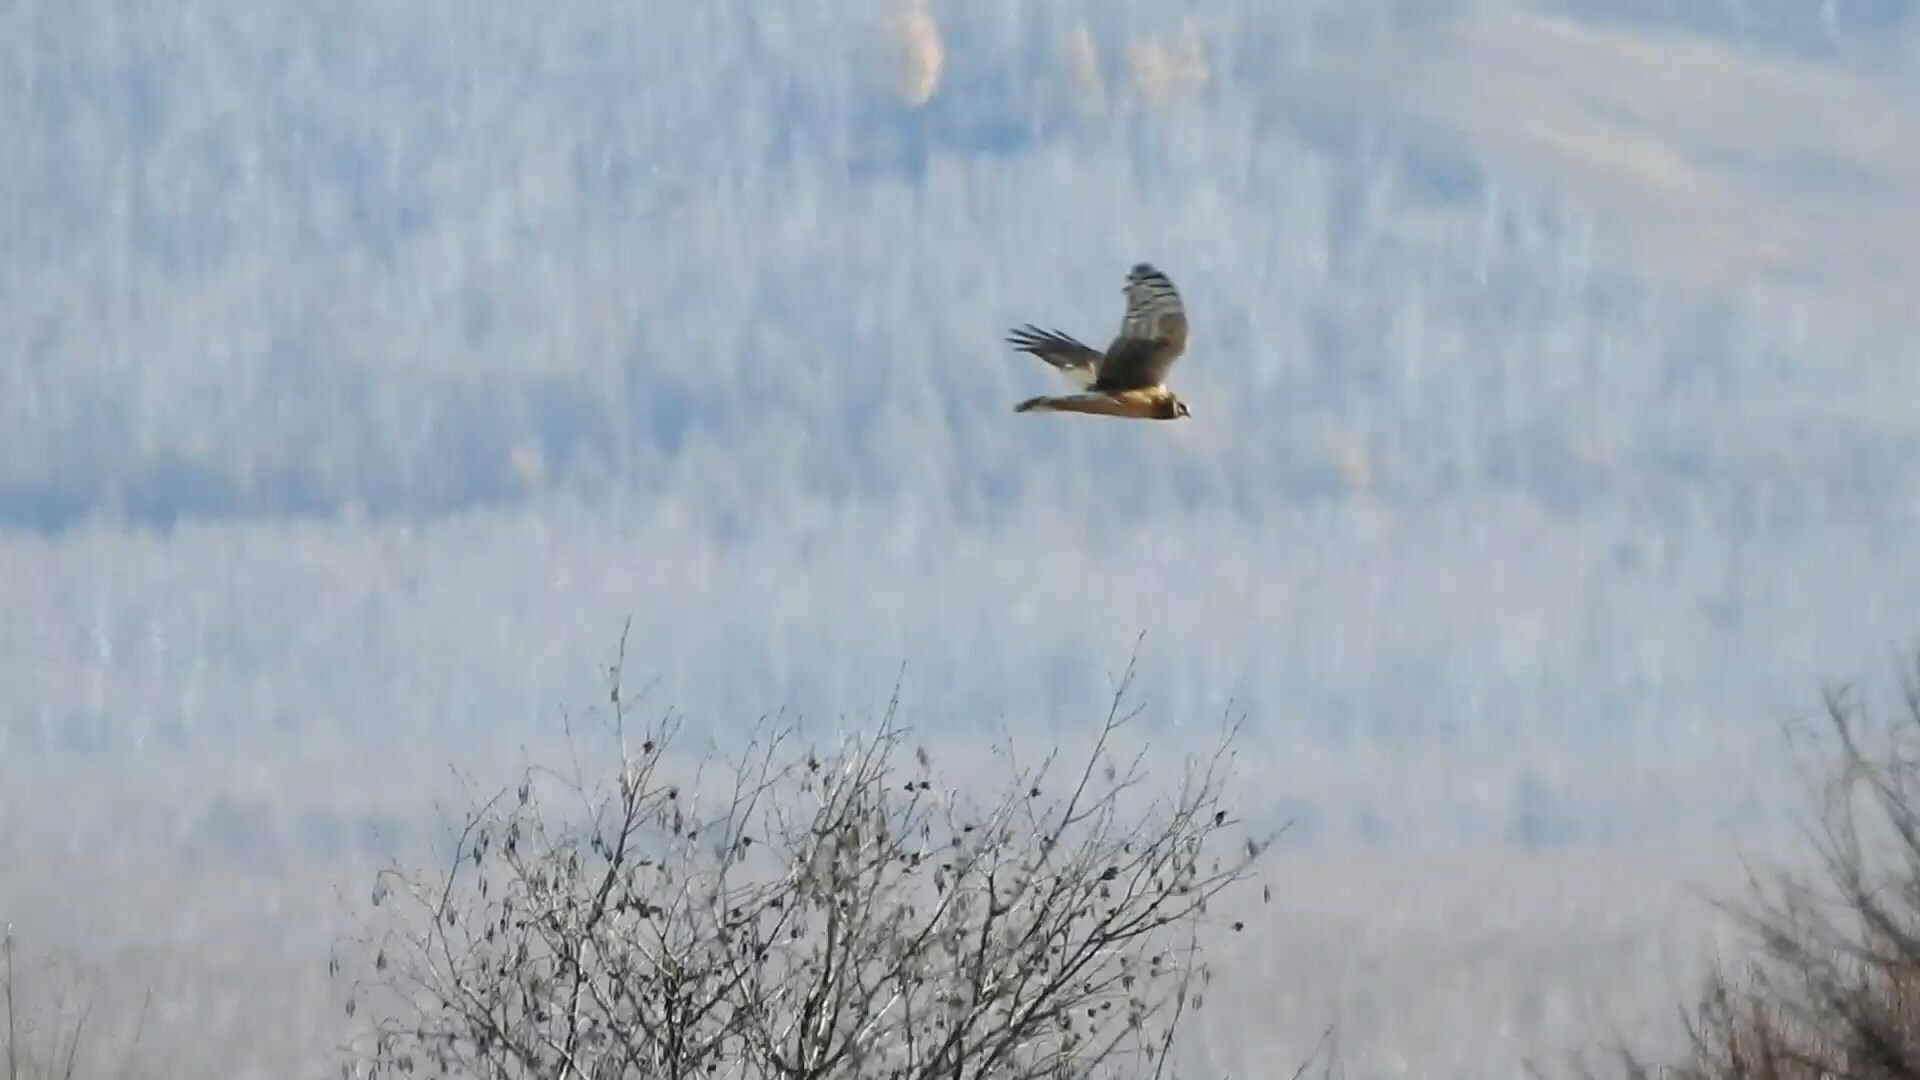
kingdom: Animalia
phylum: Chordata
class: Aves
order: Accipitriformes
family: Accipitridae
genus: Circus
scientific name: Circus cyaneus
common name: Hen harrier
